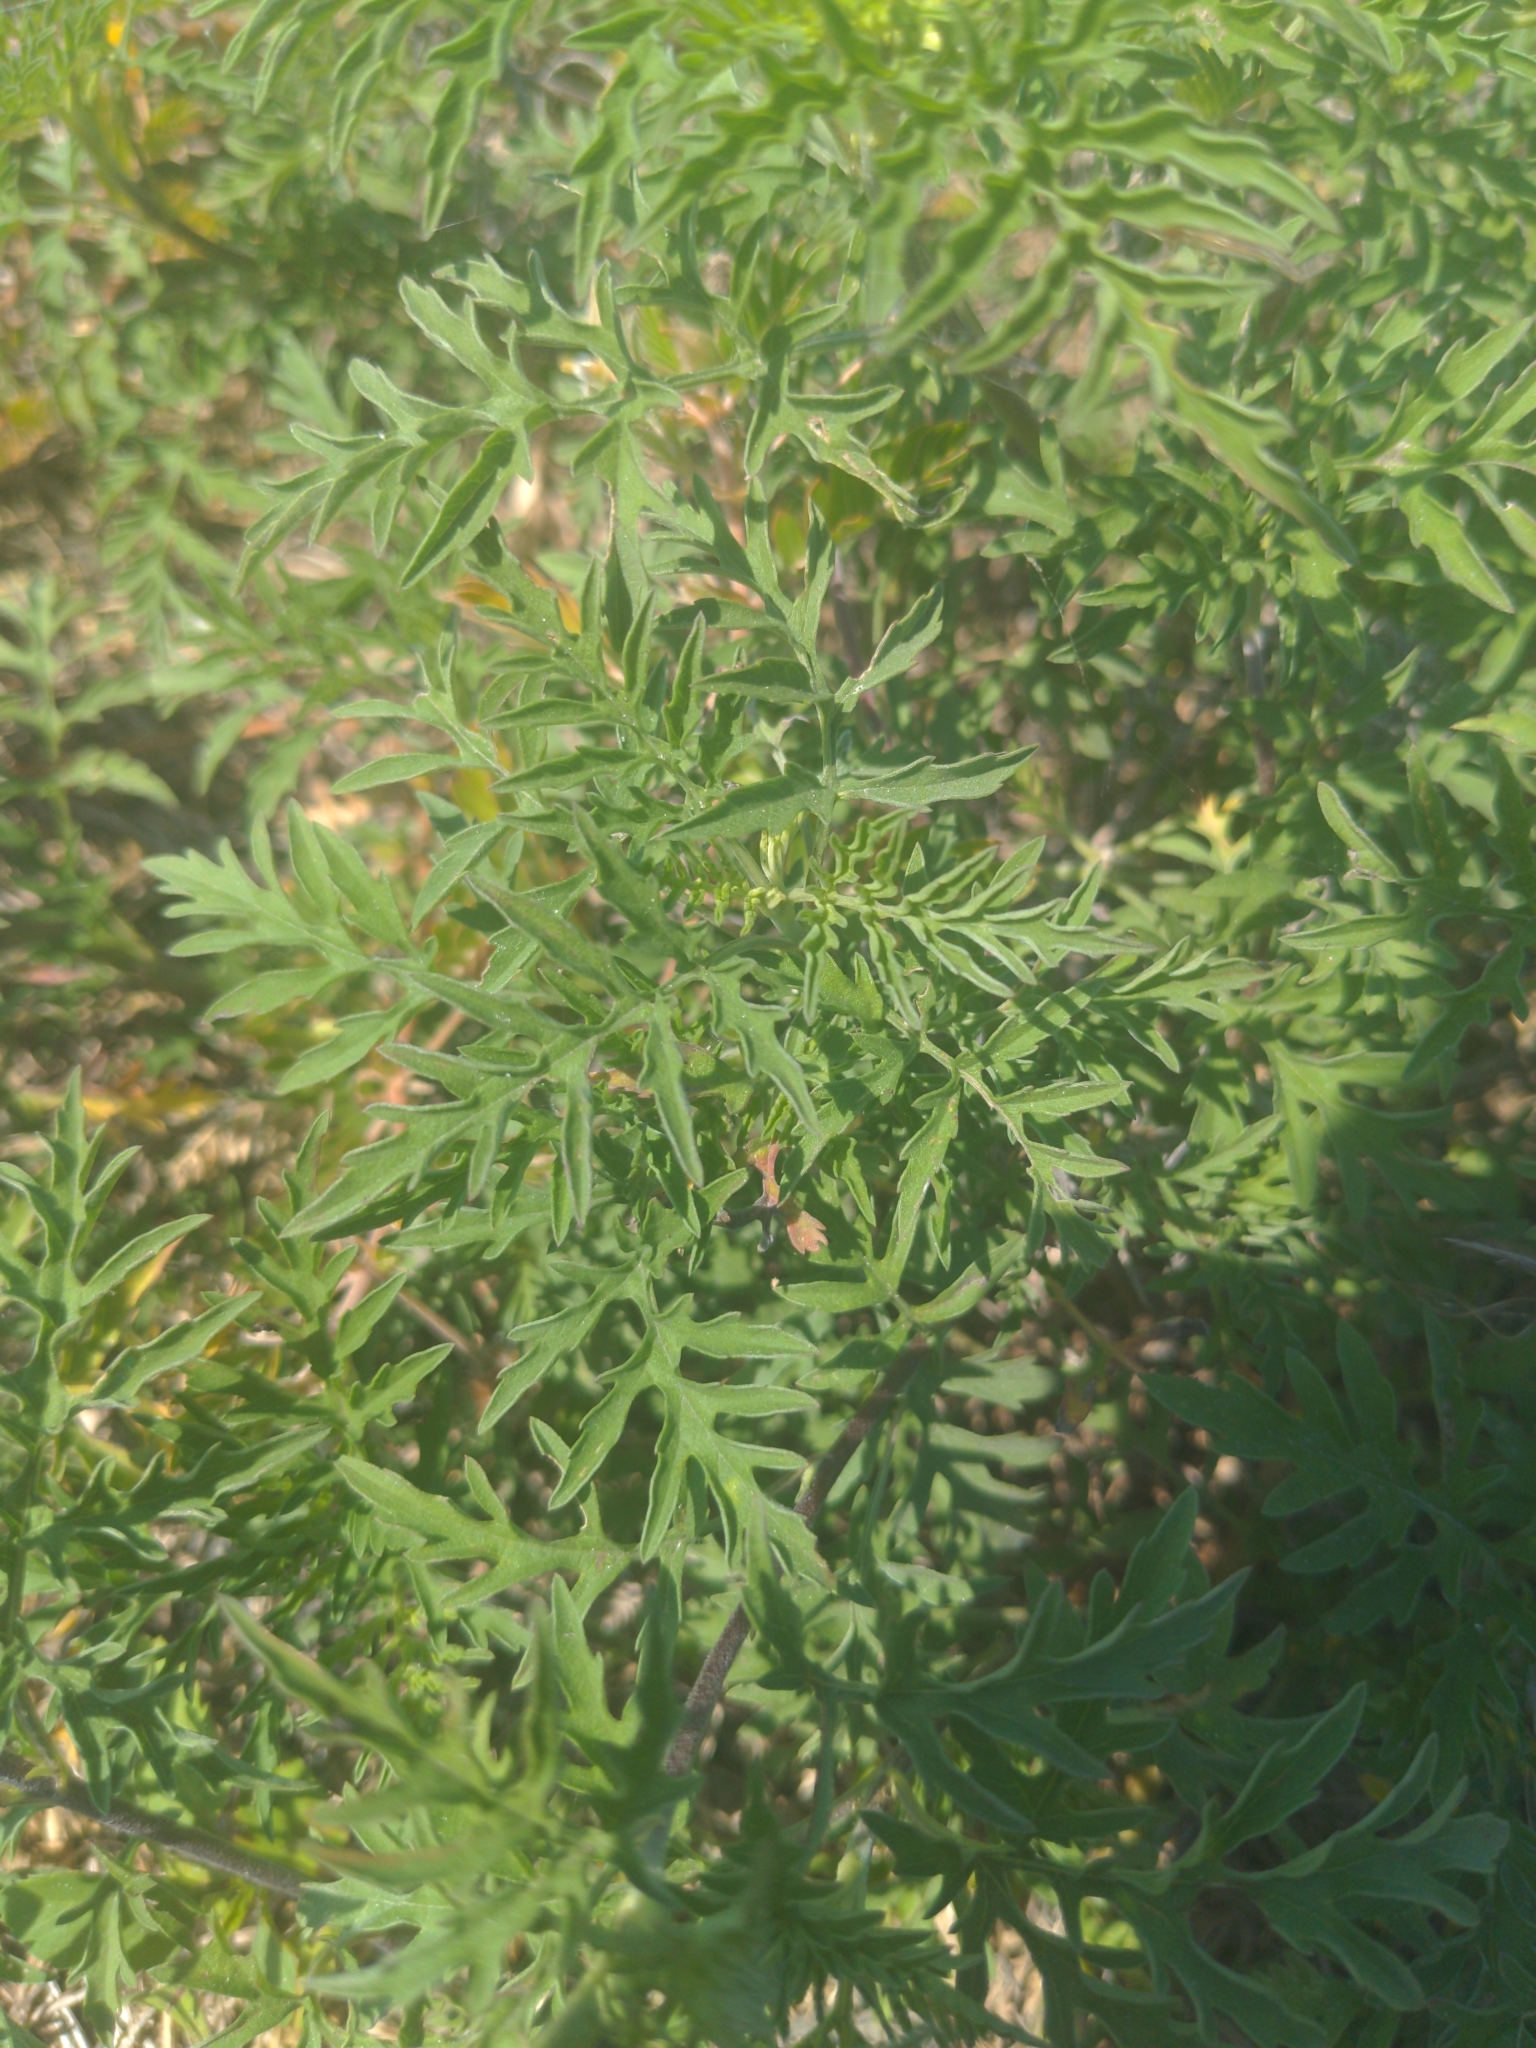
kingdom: Plantae
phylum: Tracheophyta
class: Magnoliopsida
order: Asterales
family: Asteraceae
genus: Ambrosia
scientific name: Ambrosia artemisiifolia
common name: Annual ragweed
